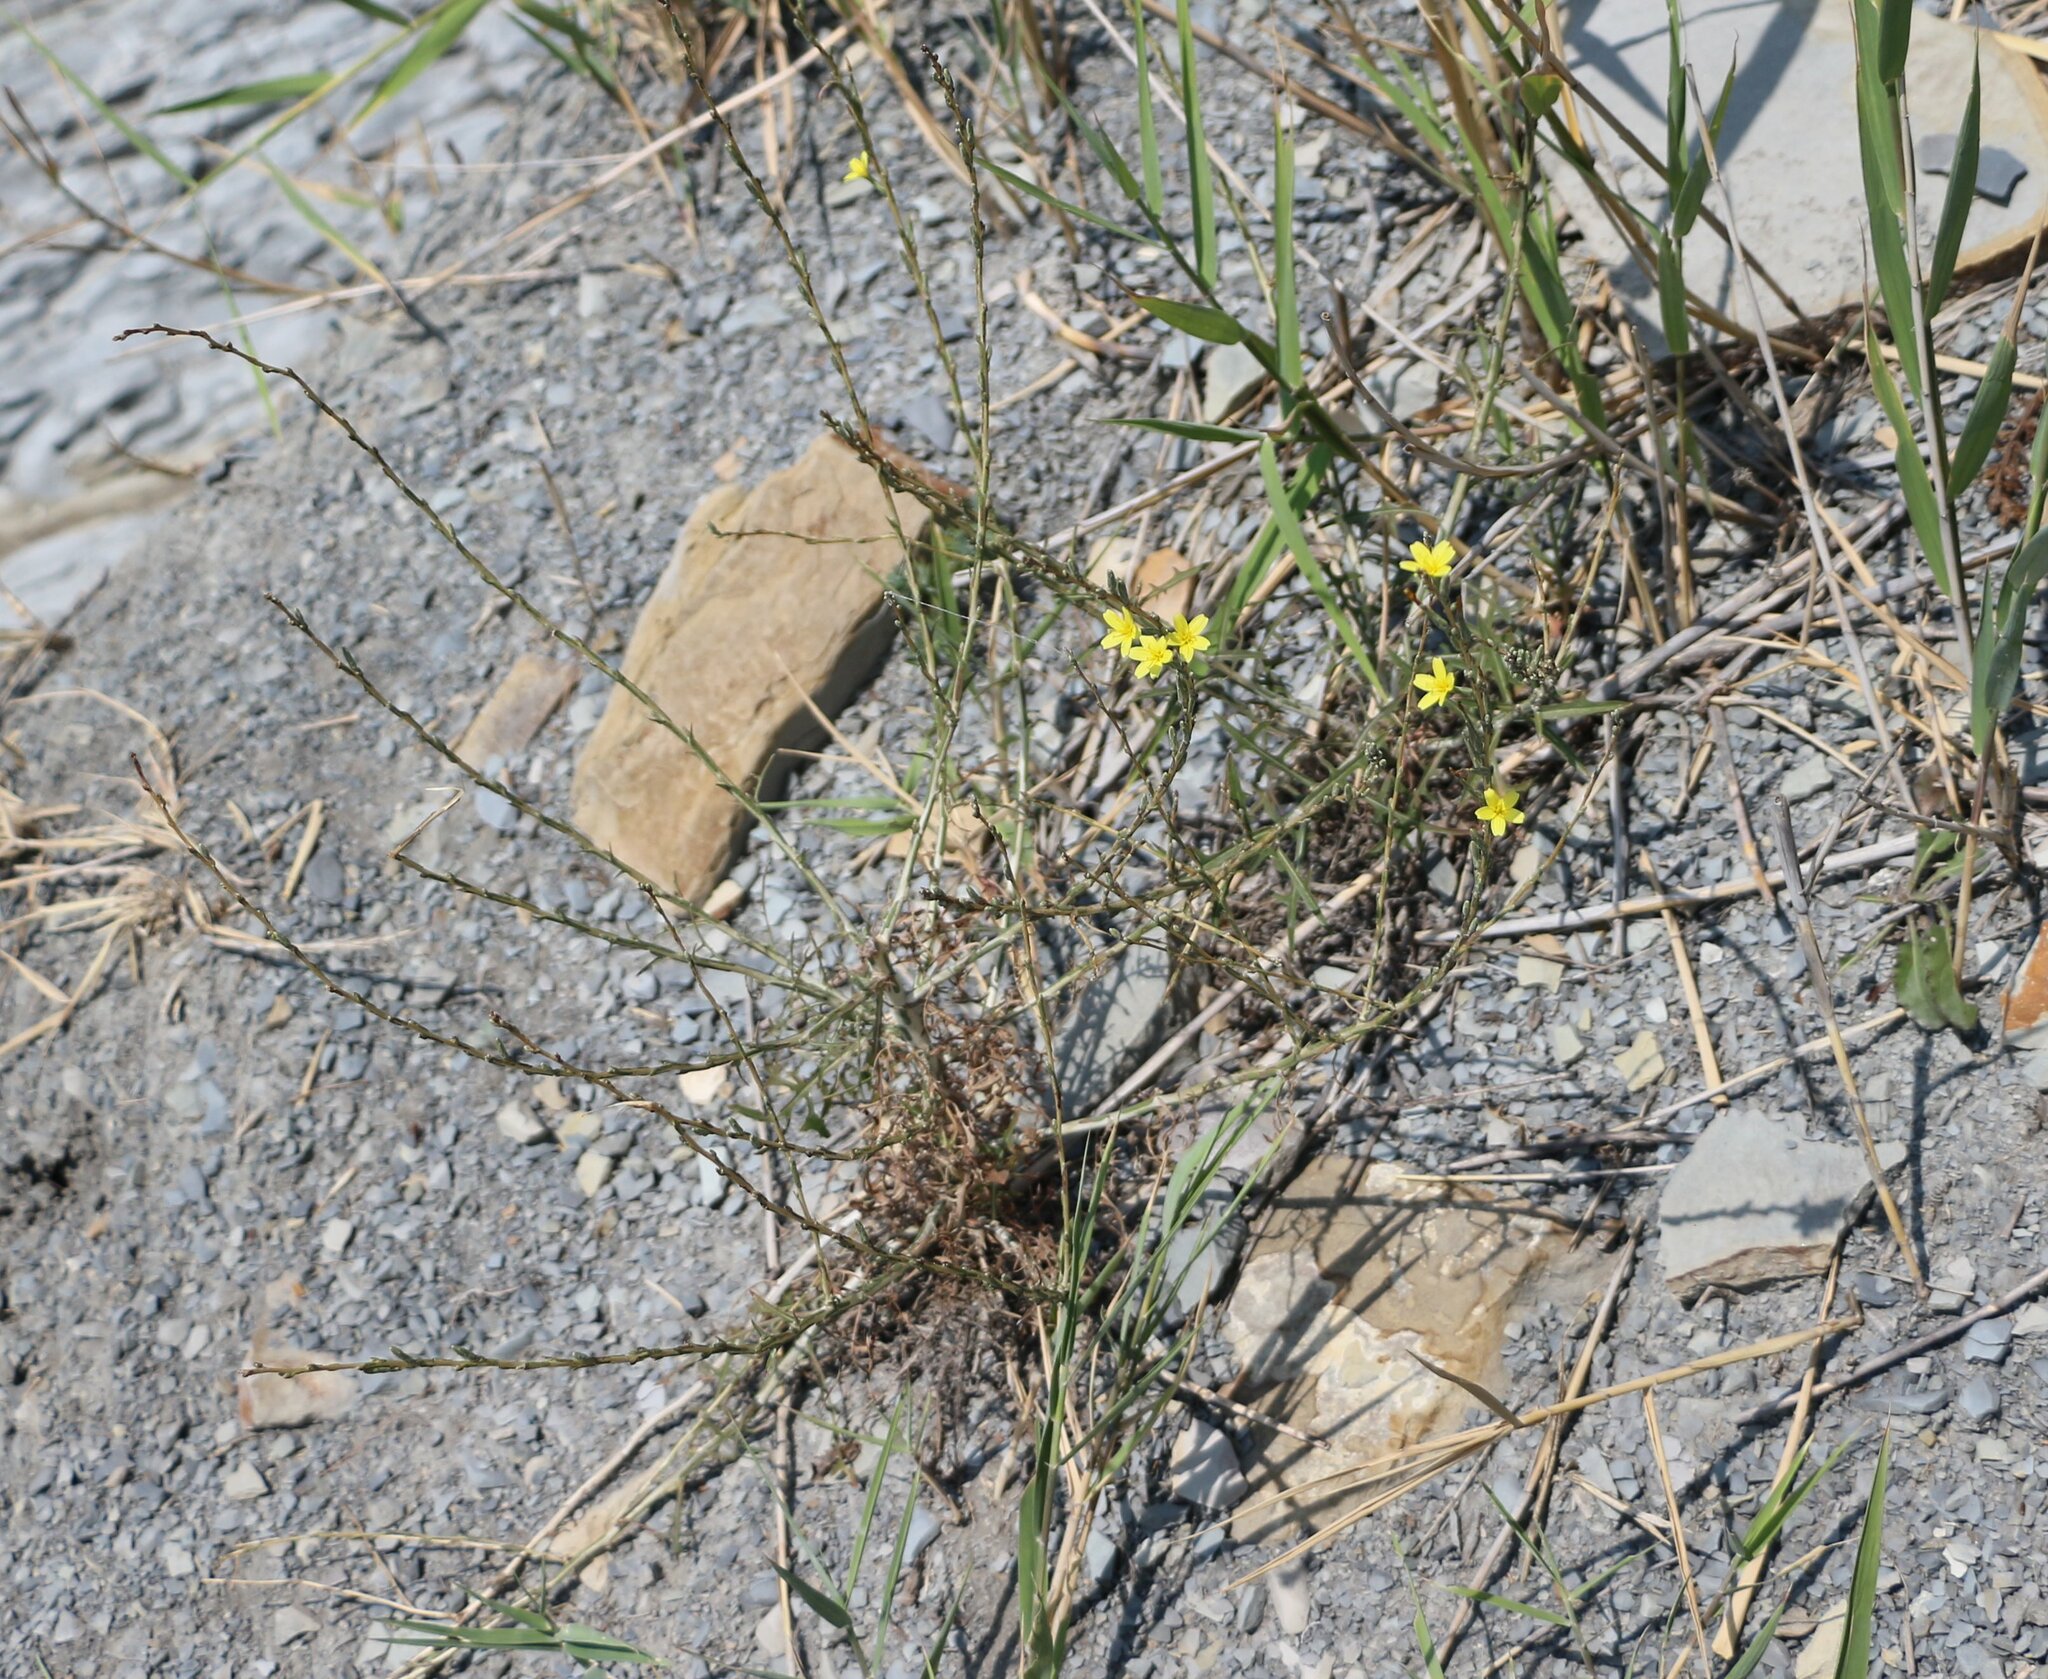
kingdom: Plantae
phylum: Tracheophyta
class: Magnoliopsida
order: Asterales
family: Asteraceae
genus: Lactuca
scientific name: Lactuca viminea
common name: Pliant lettuce
